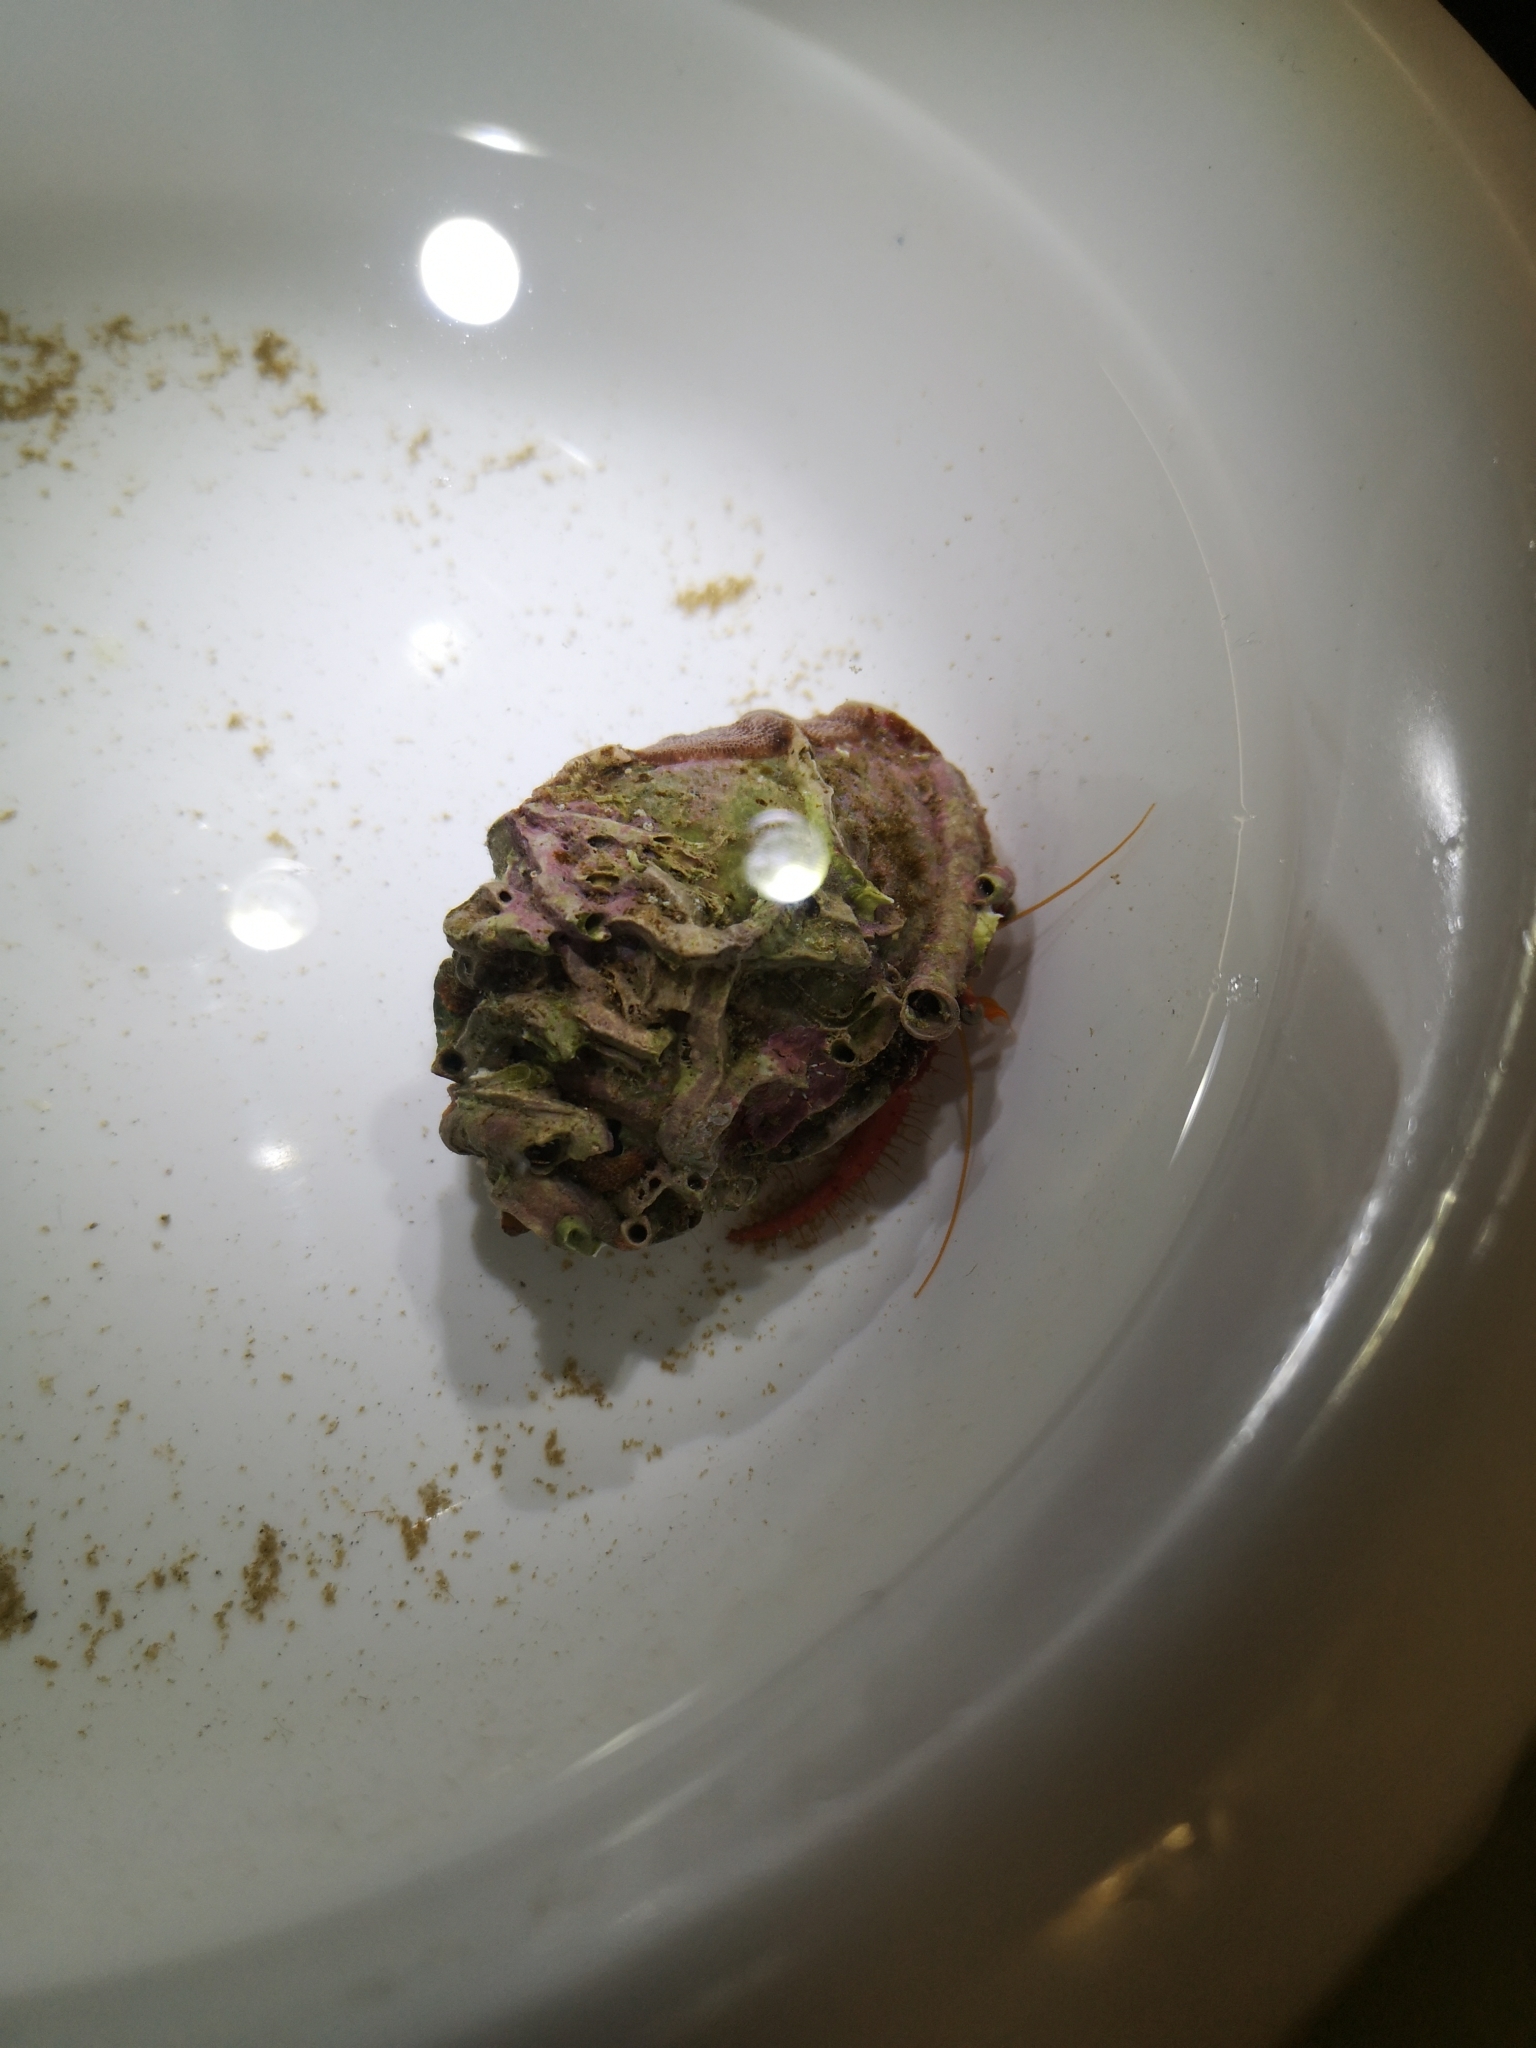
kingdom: Animalia
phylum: Arthropoda
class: Malacostraca
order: Decapoda
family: Diogenidae
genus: Calcinus
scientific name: Calcinus tubularis
